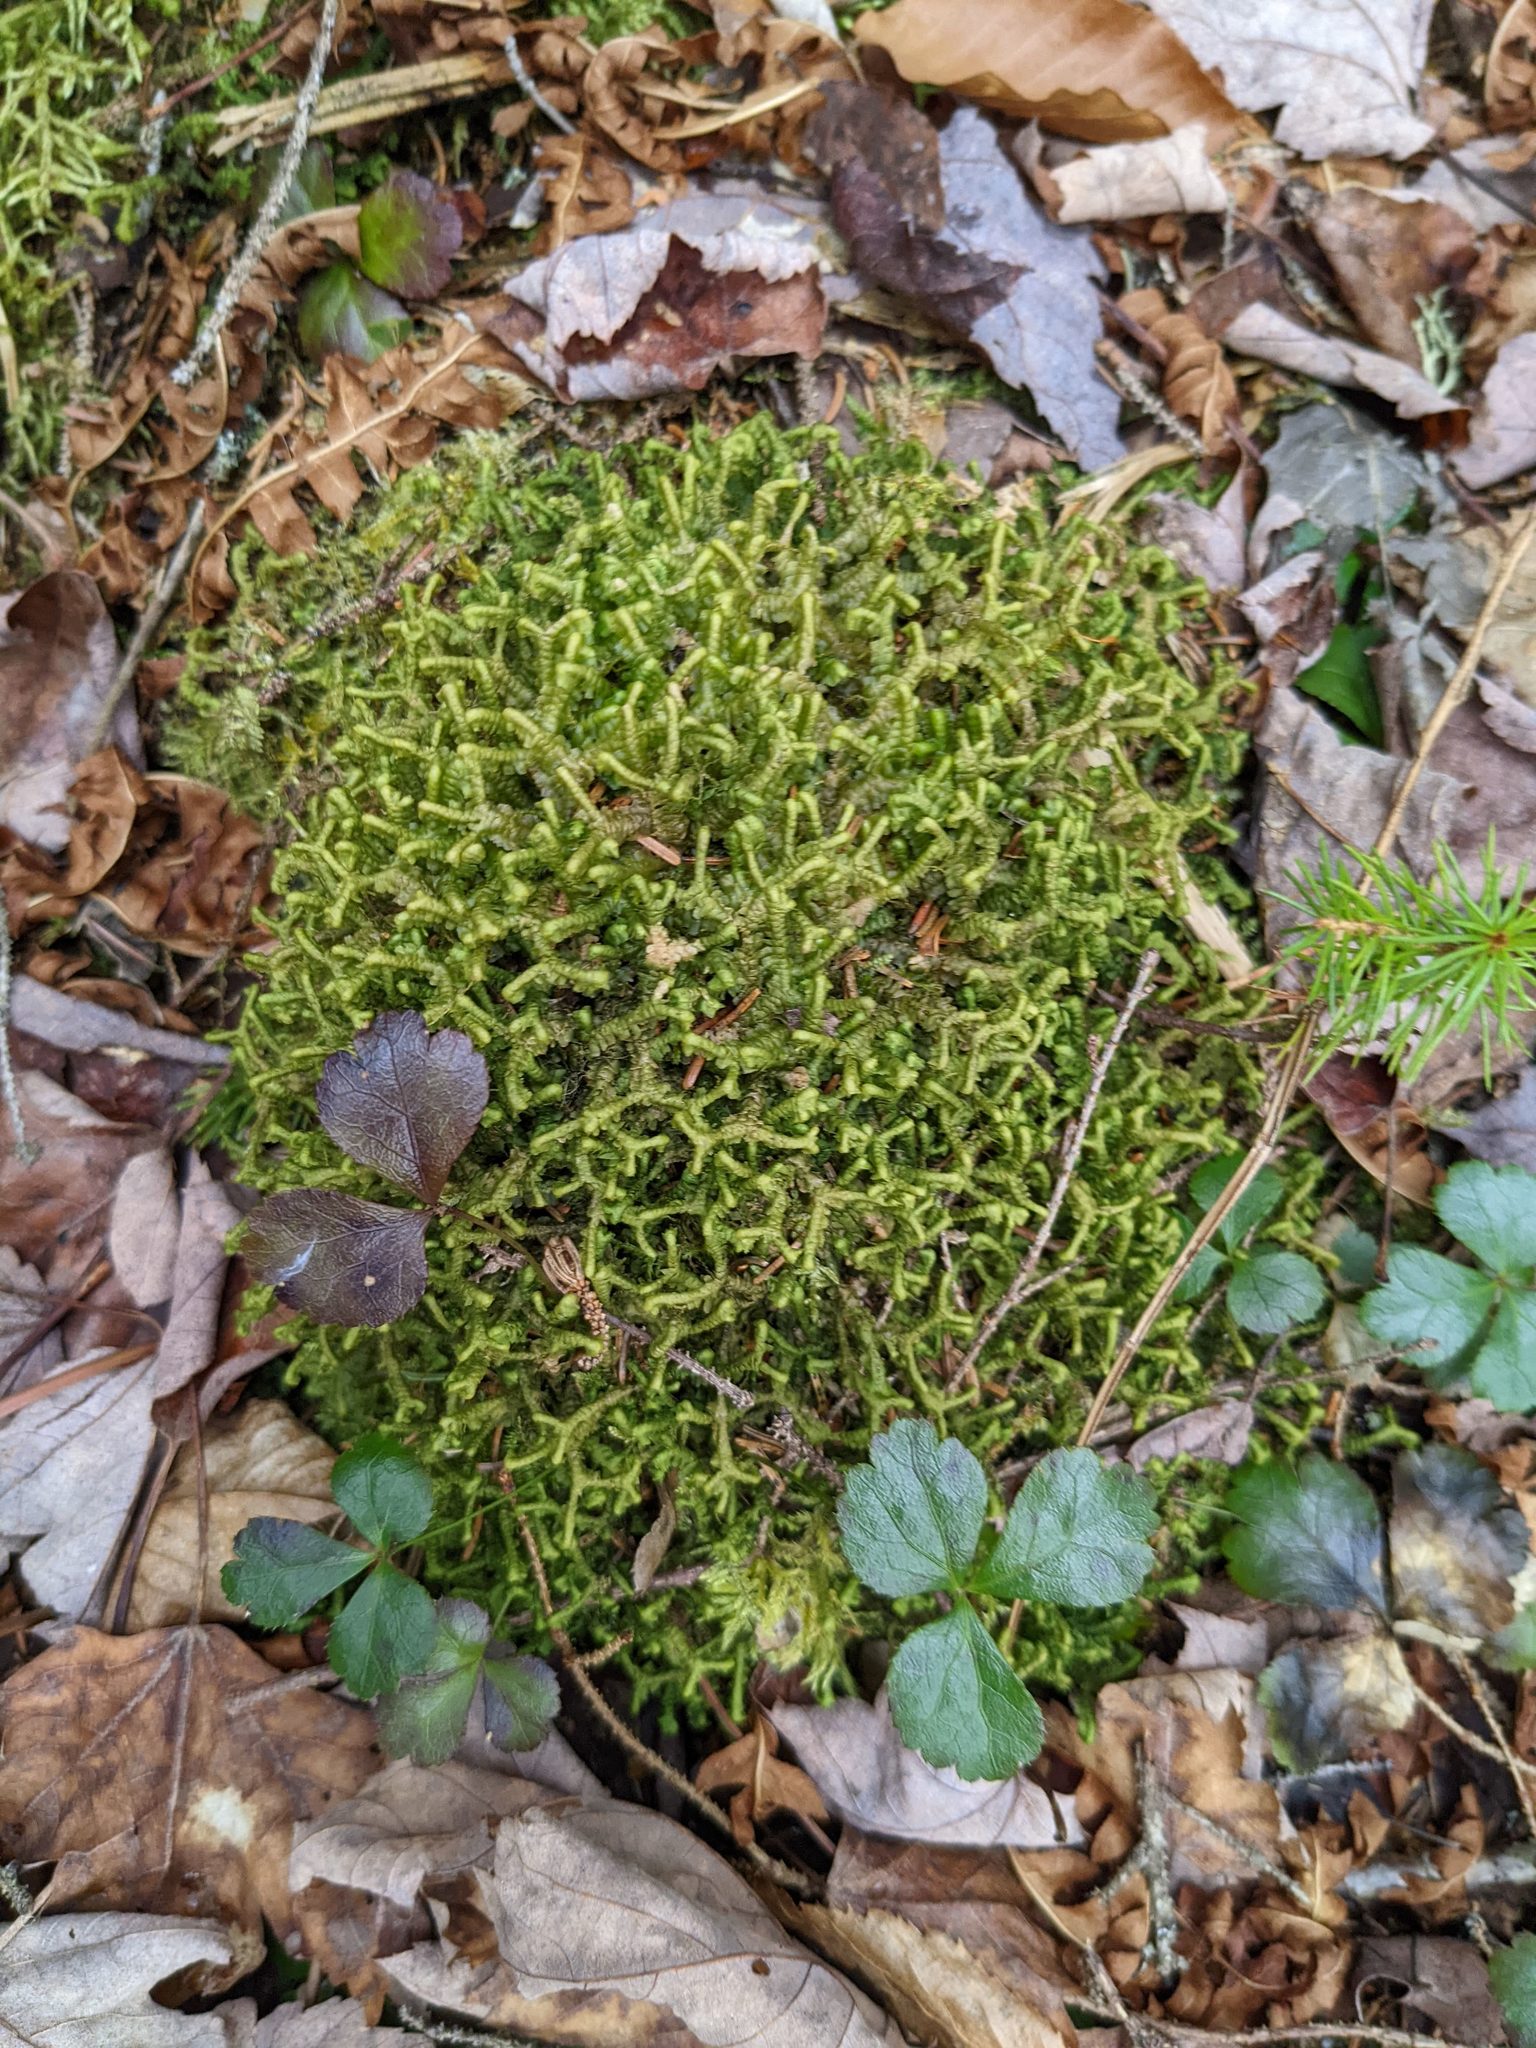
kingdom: Plantae
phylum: Marchantiophyta
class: Jungermanniopsida
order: Jungermanniales
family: Lepidoziaceae
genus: Bazzania
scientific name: Bazzania trilobata
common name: Three-lobed whipwort
